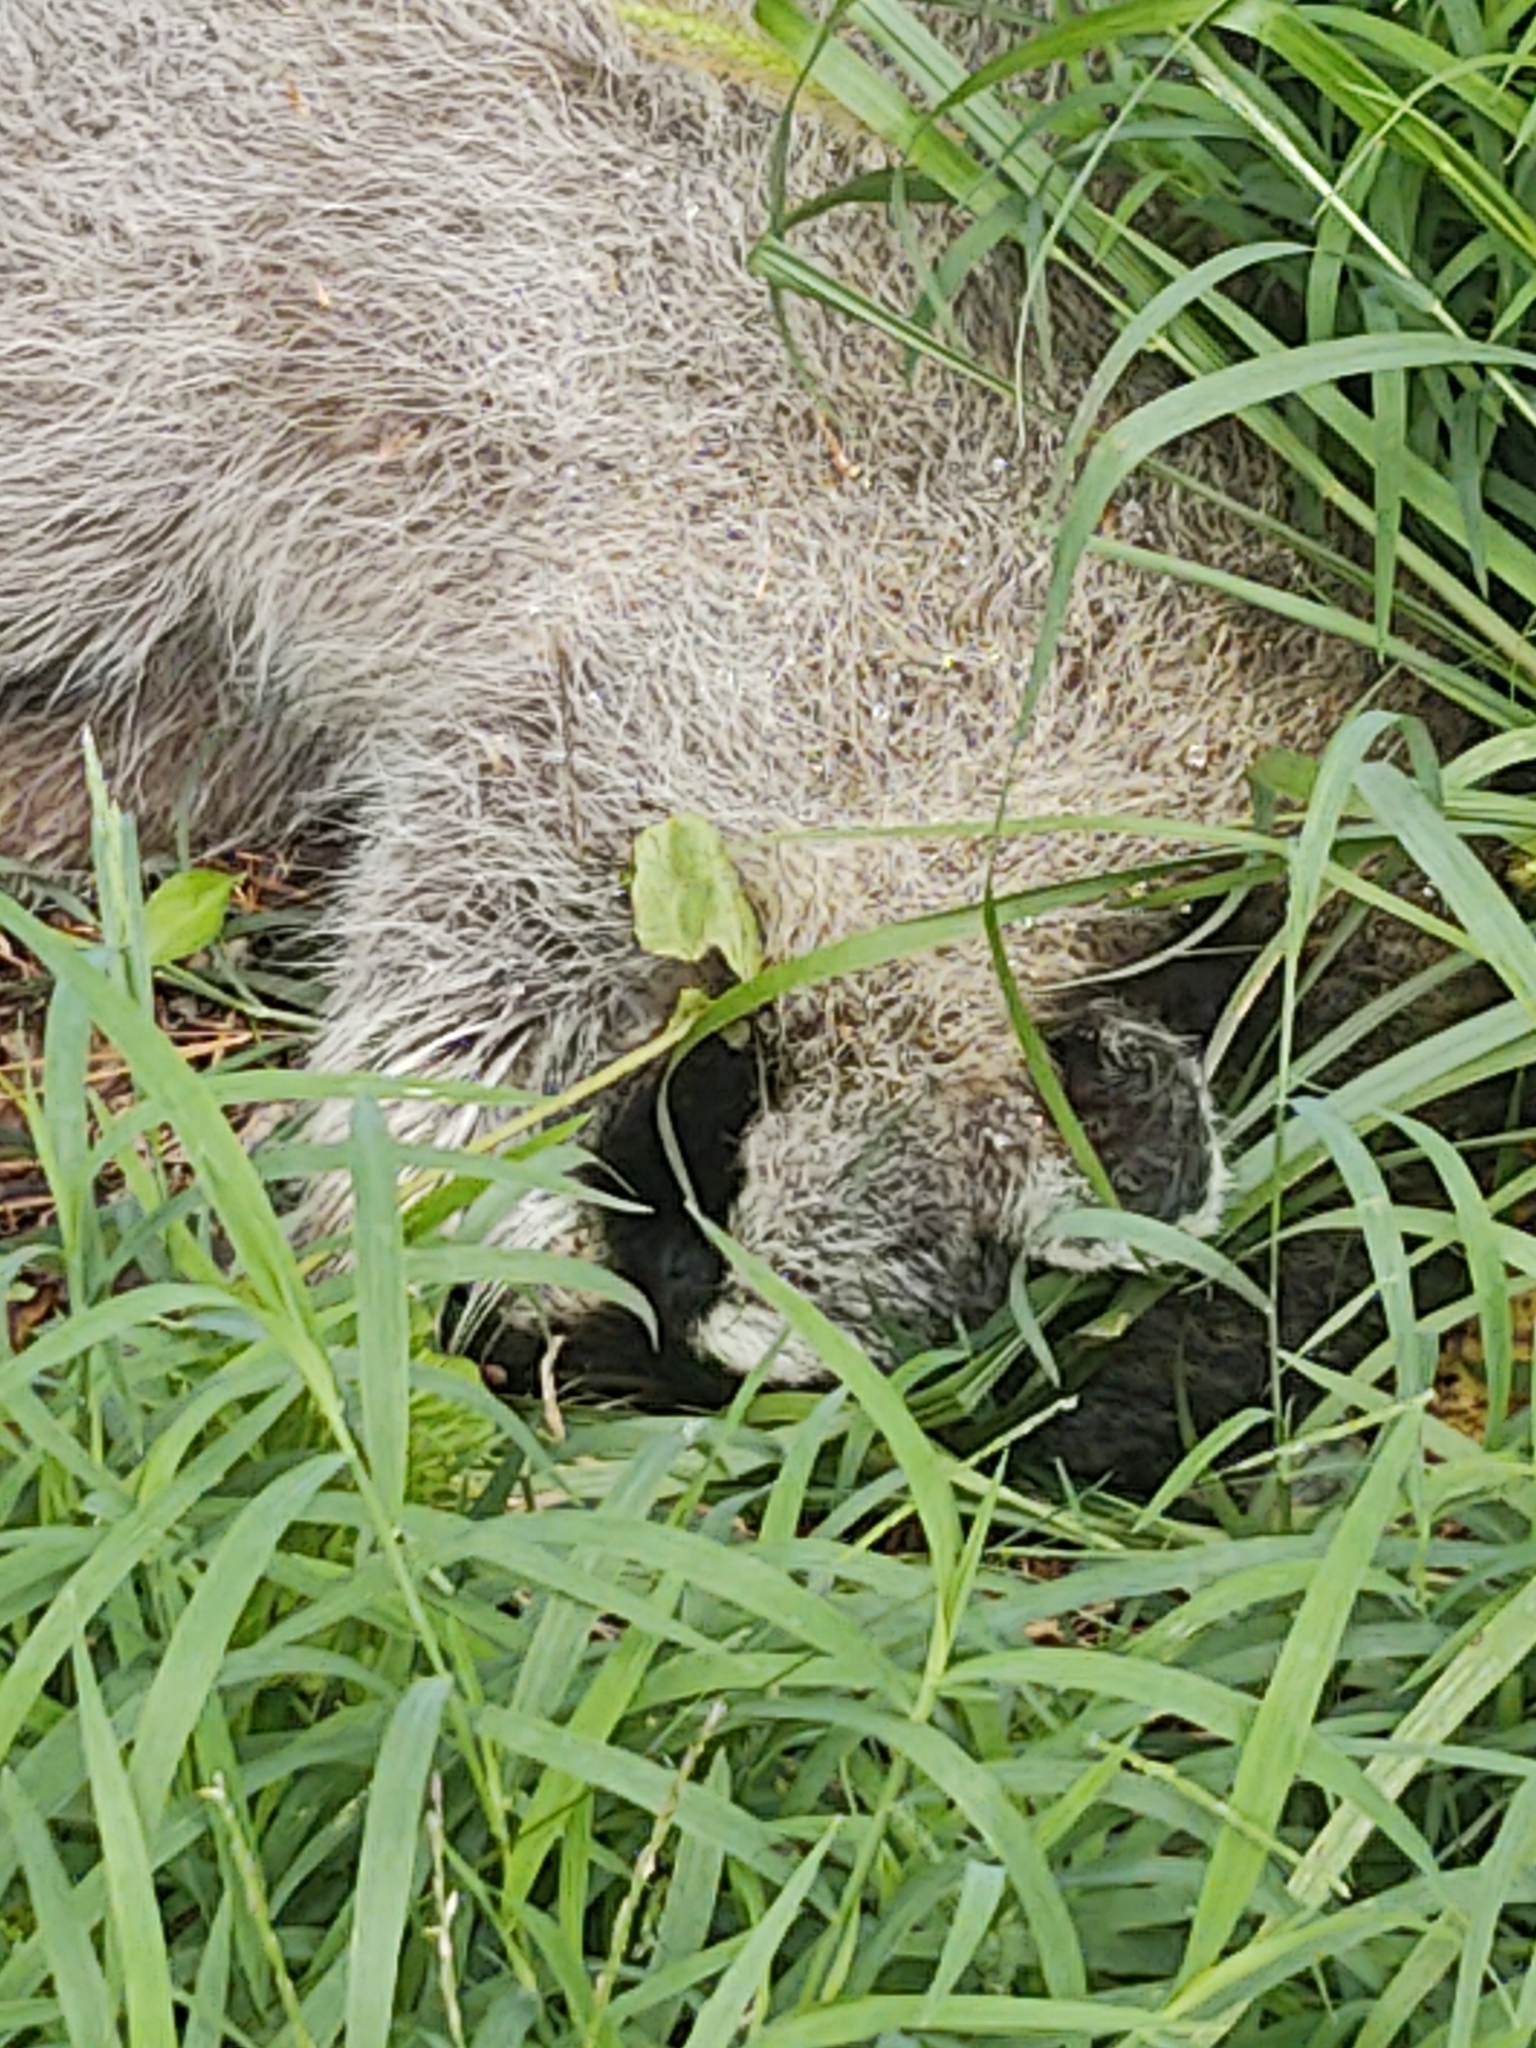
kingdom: Animalia
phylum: Chordata
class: Mammalia
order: Carnivora
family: Procyonidae
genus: Procyon
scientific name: Procyon lotor
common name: Raccoon
